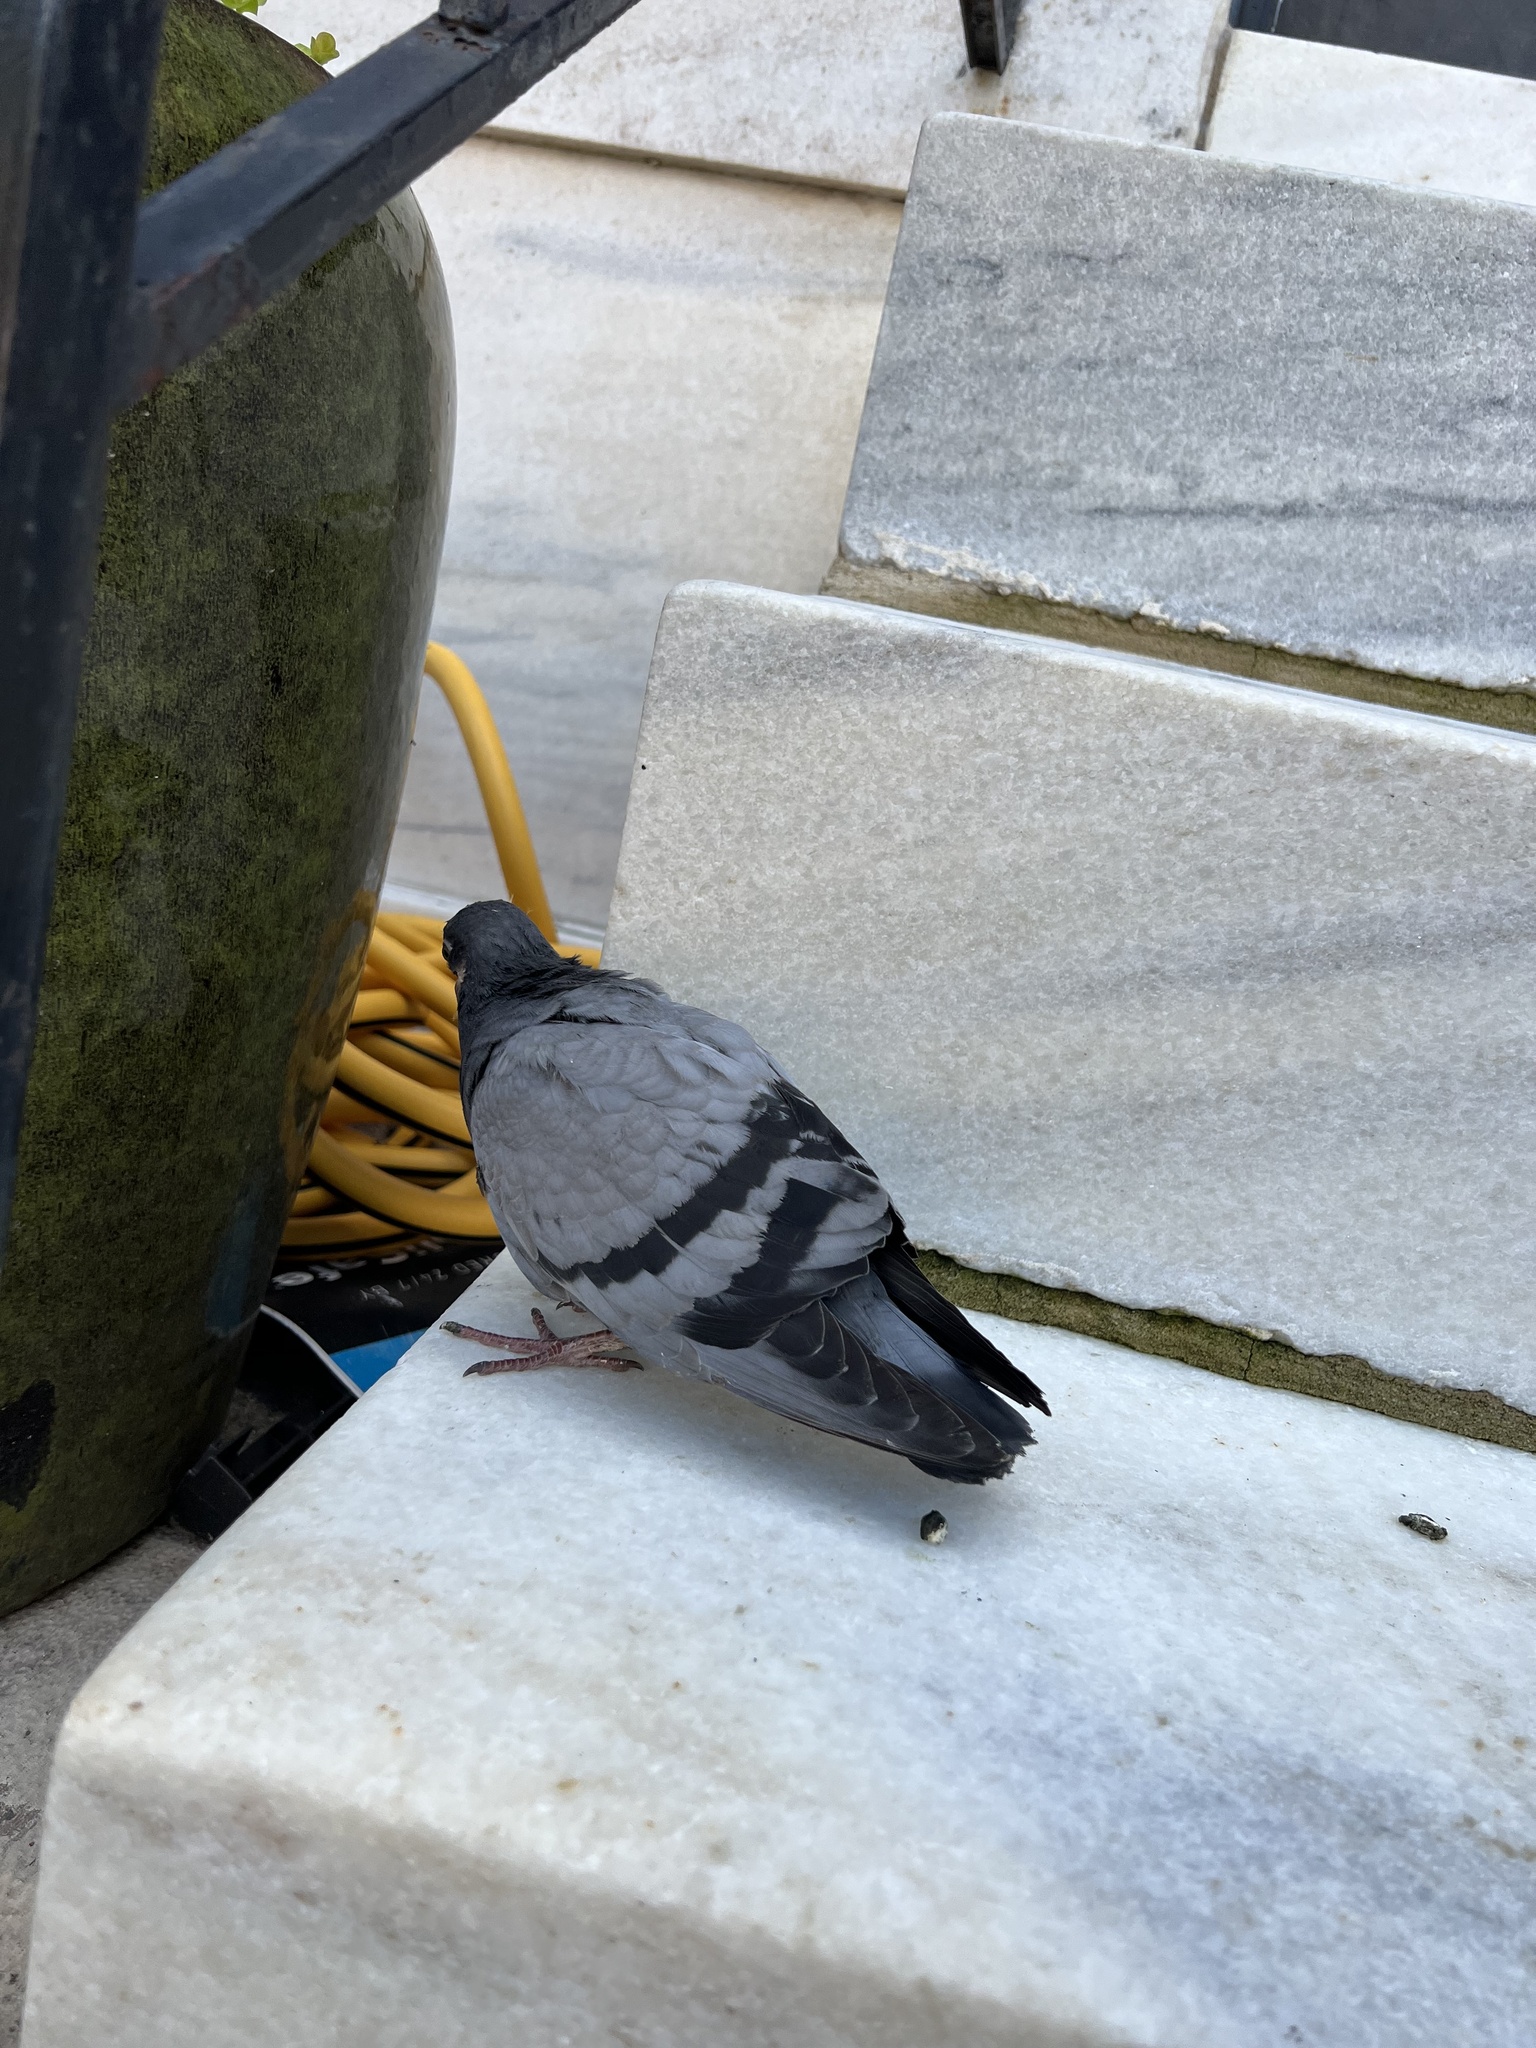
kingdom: Animalia
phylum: Chordata
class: Aves
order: Columbiformes
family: Columbidae
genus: Columba
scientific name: Columba livia
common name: Rock pigeon
